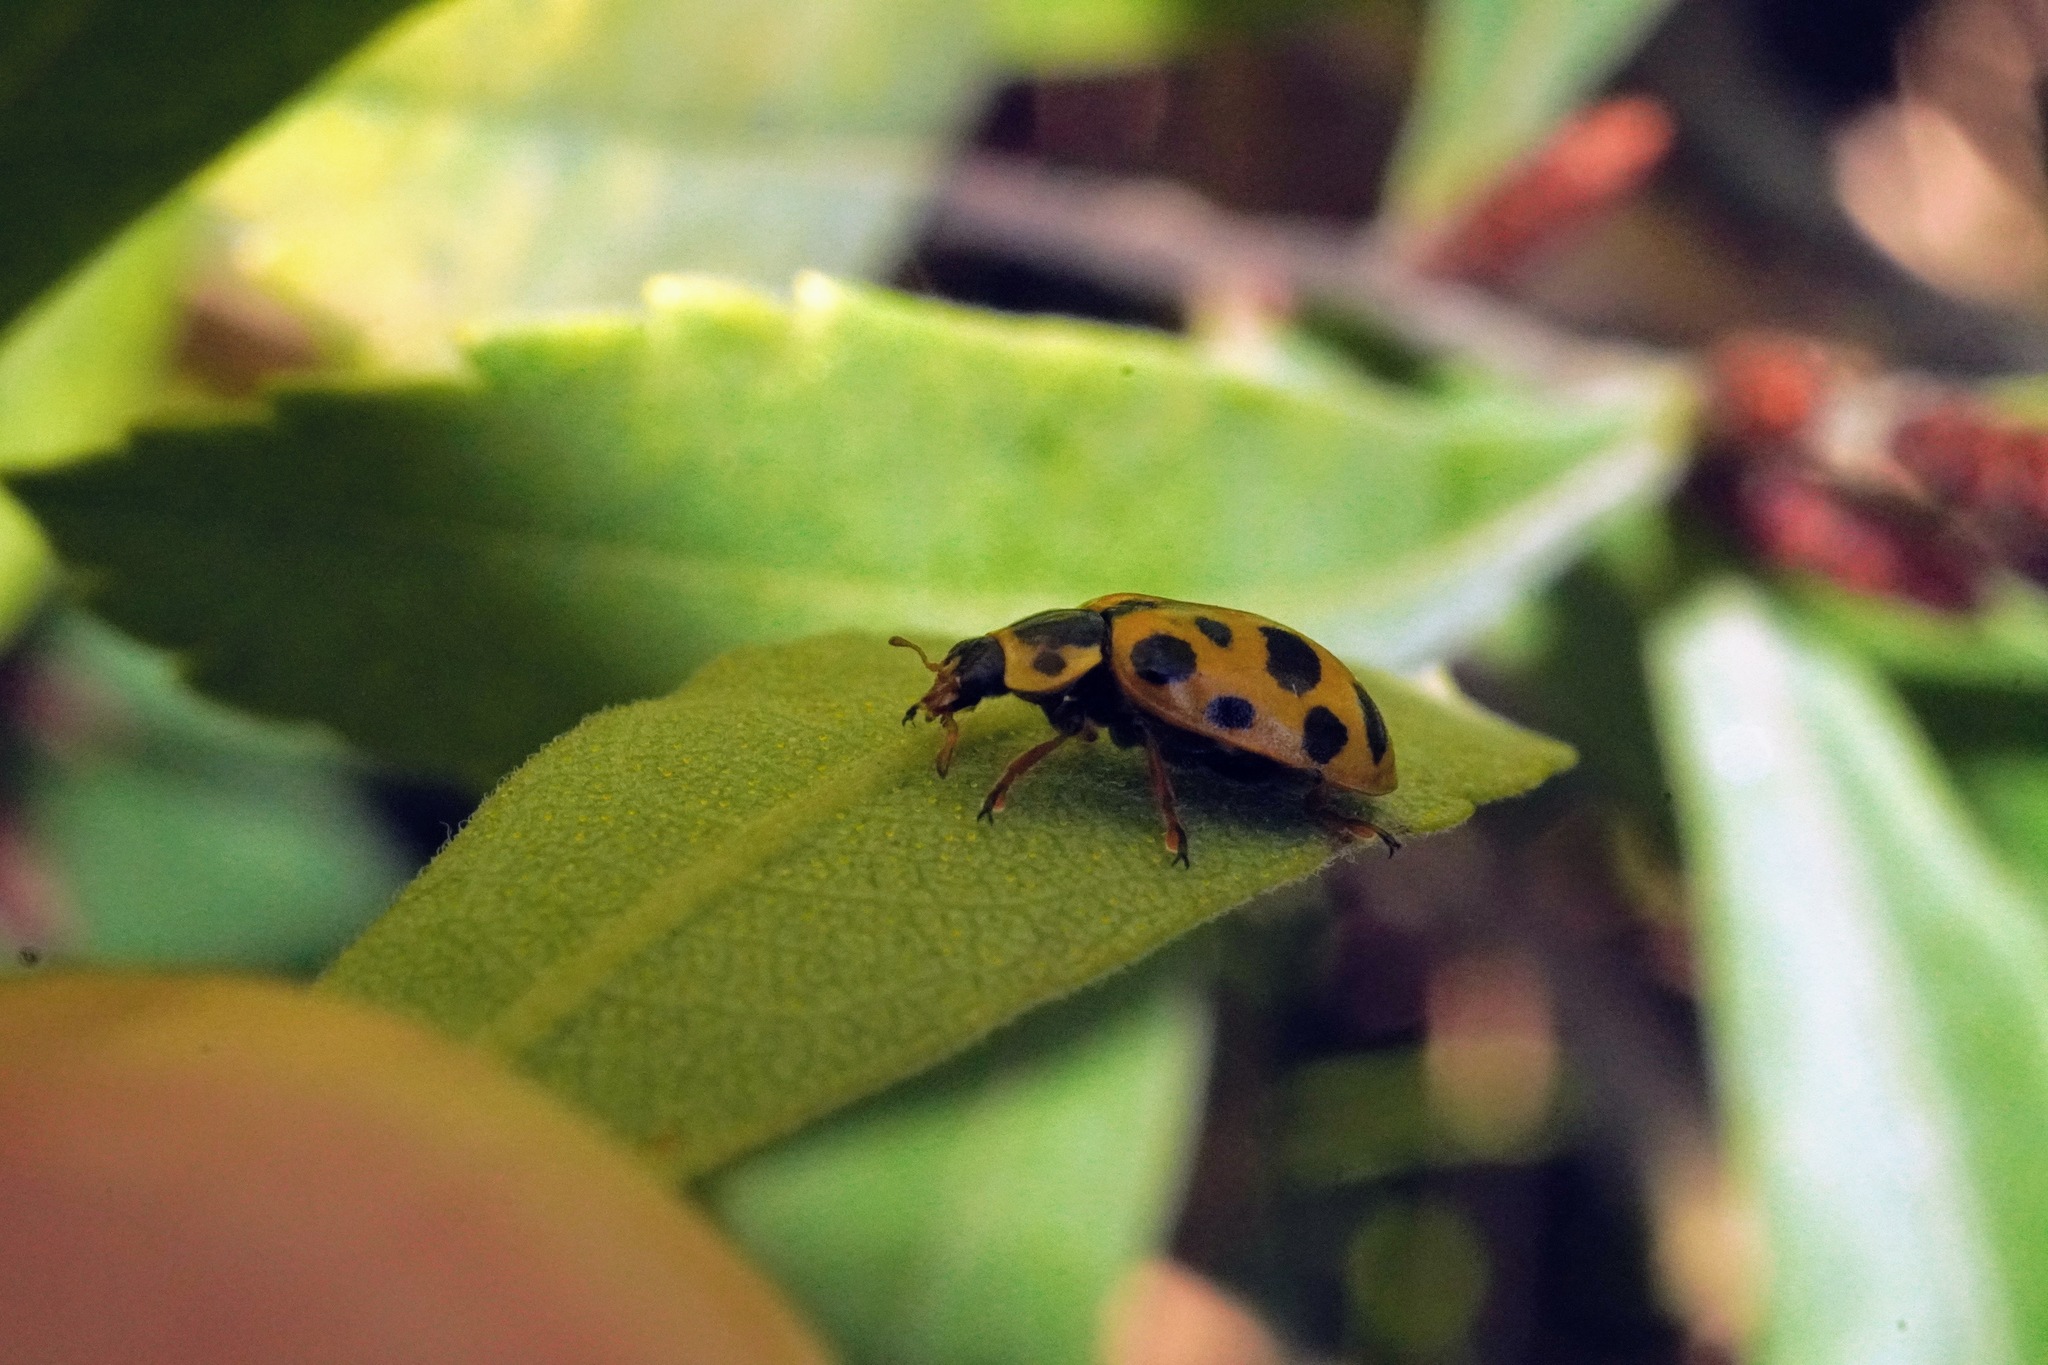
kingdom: Animalia
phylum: Arthropoda
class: Insecta
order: Coleoptera
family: Coccinellidae
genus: Hippodamia
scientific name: Hippodamia tredecimpunctata
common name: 13-spot ladybird
